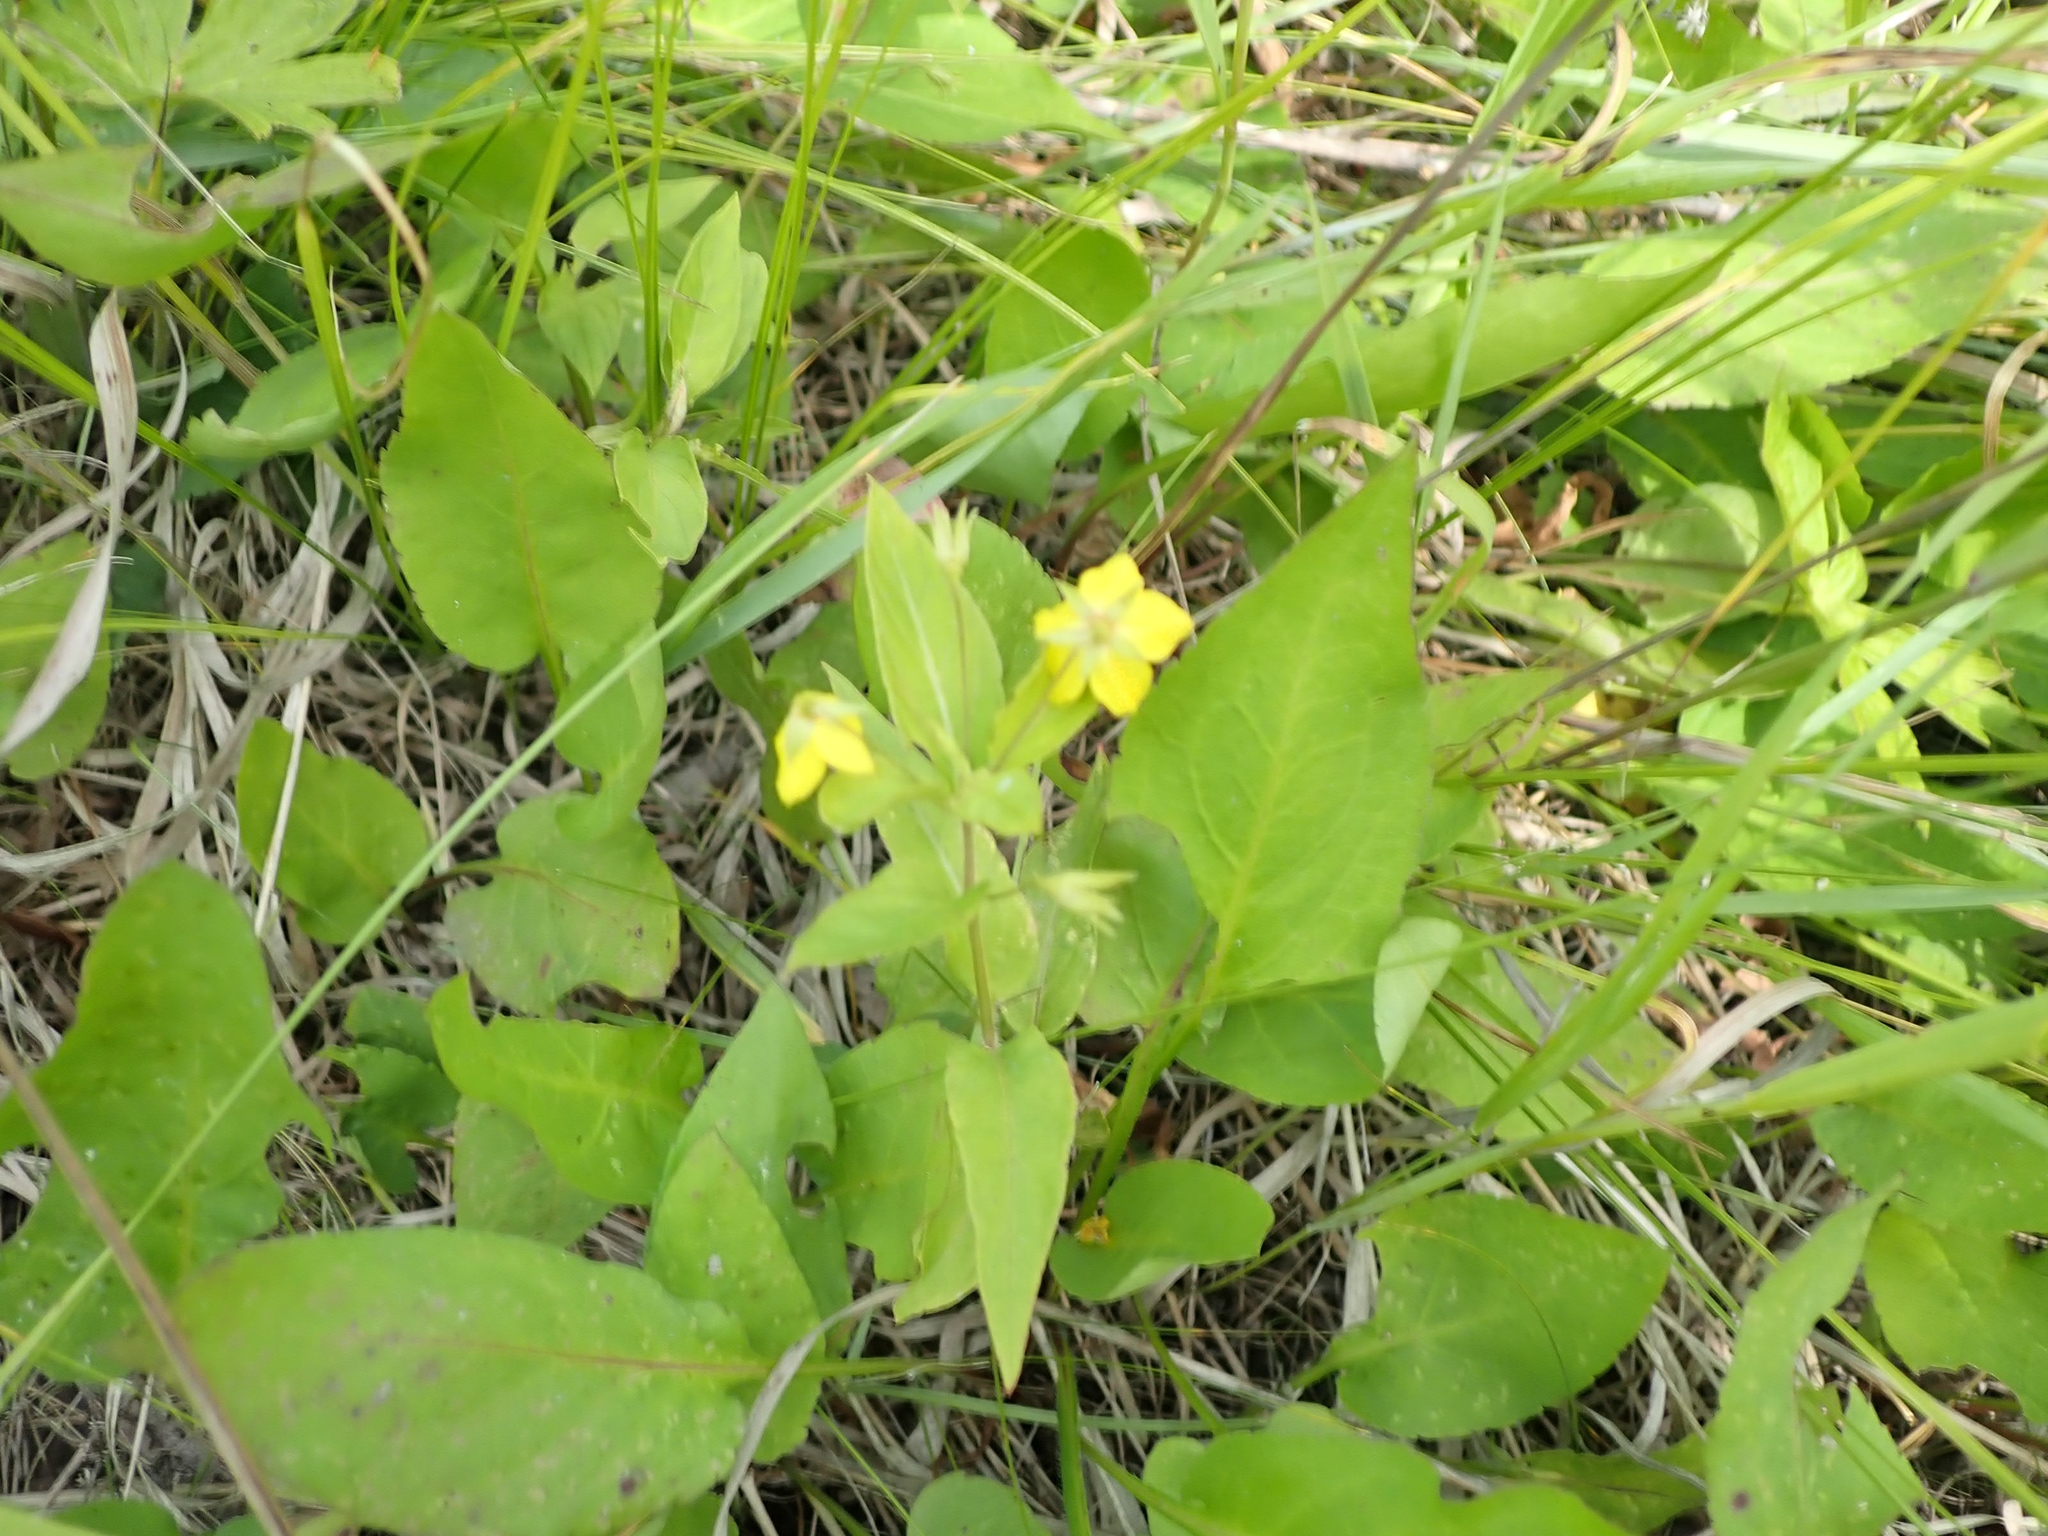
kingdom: Plantae
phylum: Tracheophyta
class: Magnoliopsida
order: Ericales
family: Primulaceae
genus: Lysimachia
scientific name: Lysimachia ciliata
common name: Fringed loosestrife
